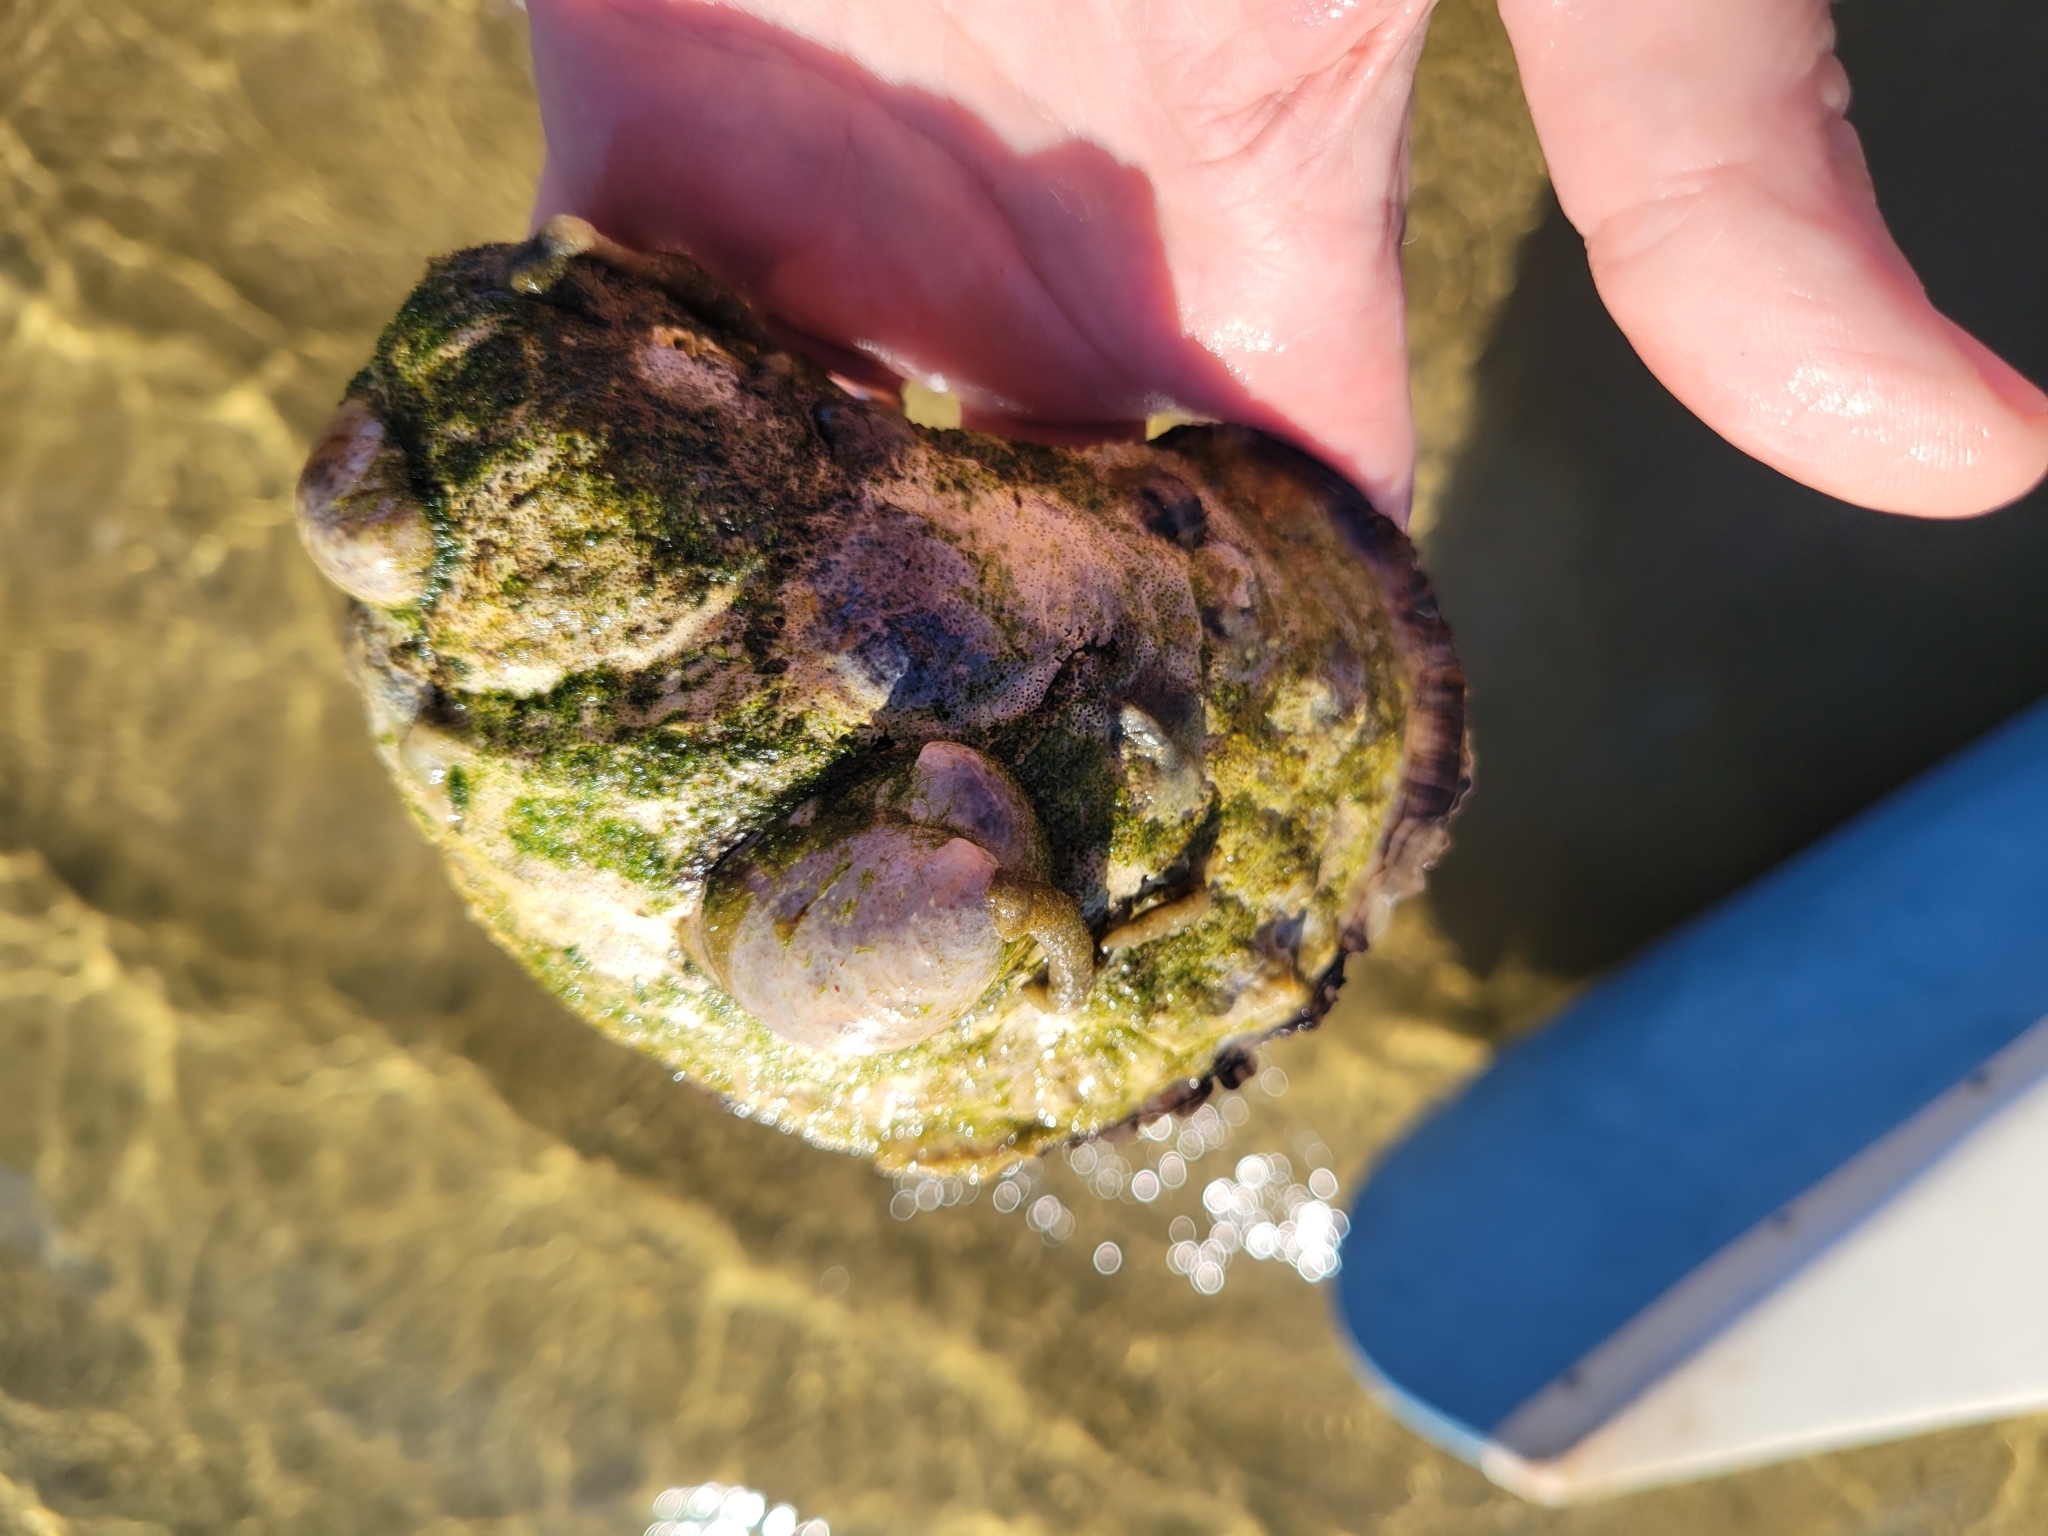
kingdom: Animalia
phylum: Mollusca
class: Bivalvia
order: Ostreida
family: Ostreidae
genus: Crassostrea
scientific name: Crassostrea virginica
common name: American oyster
